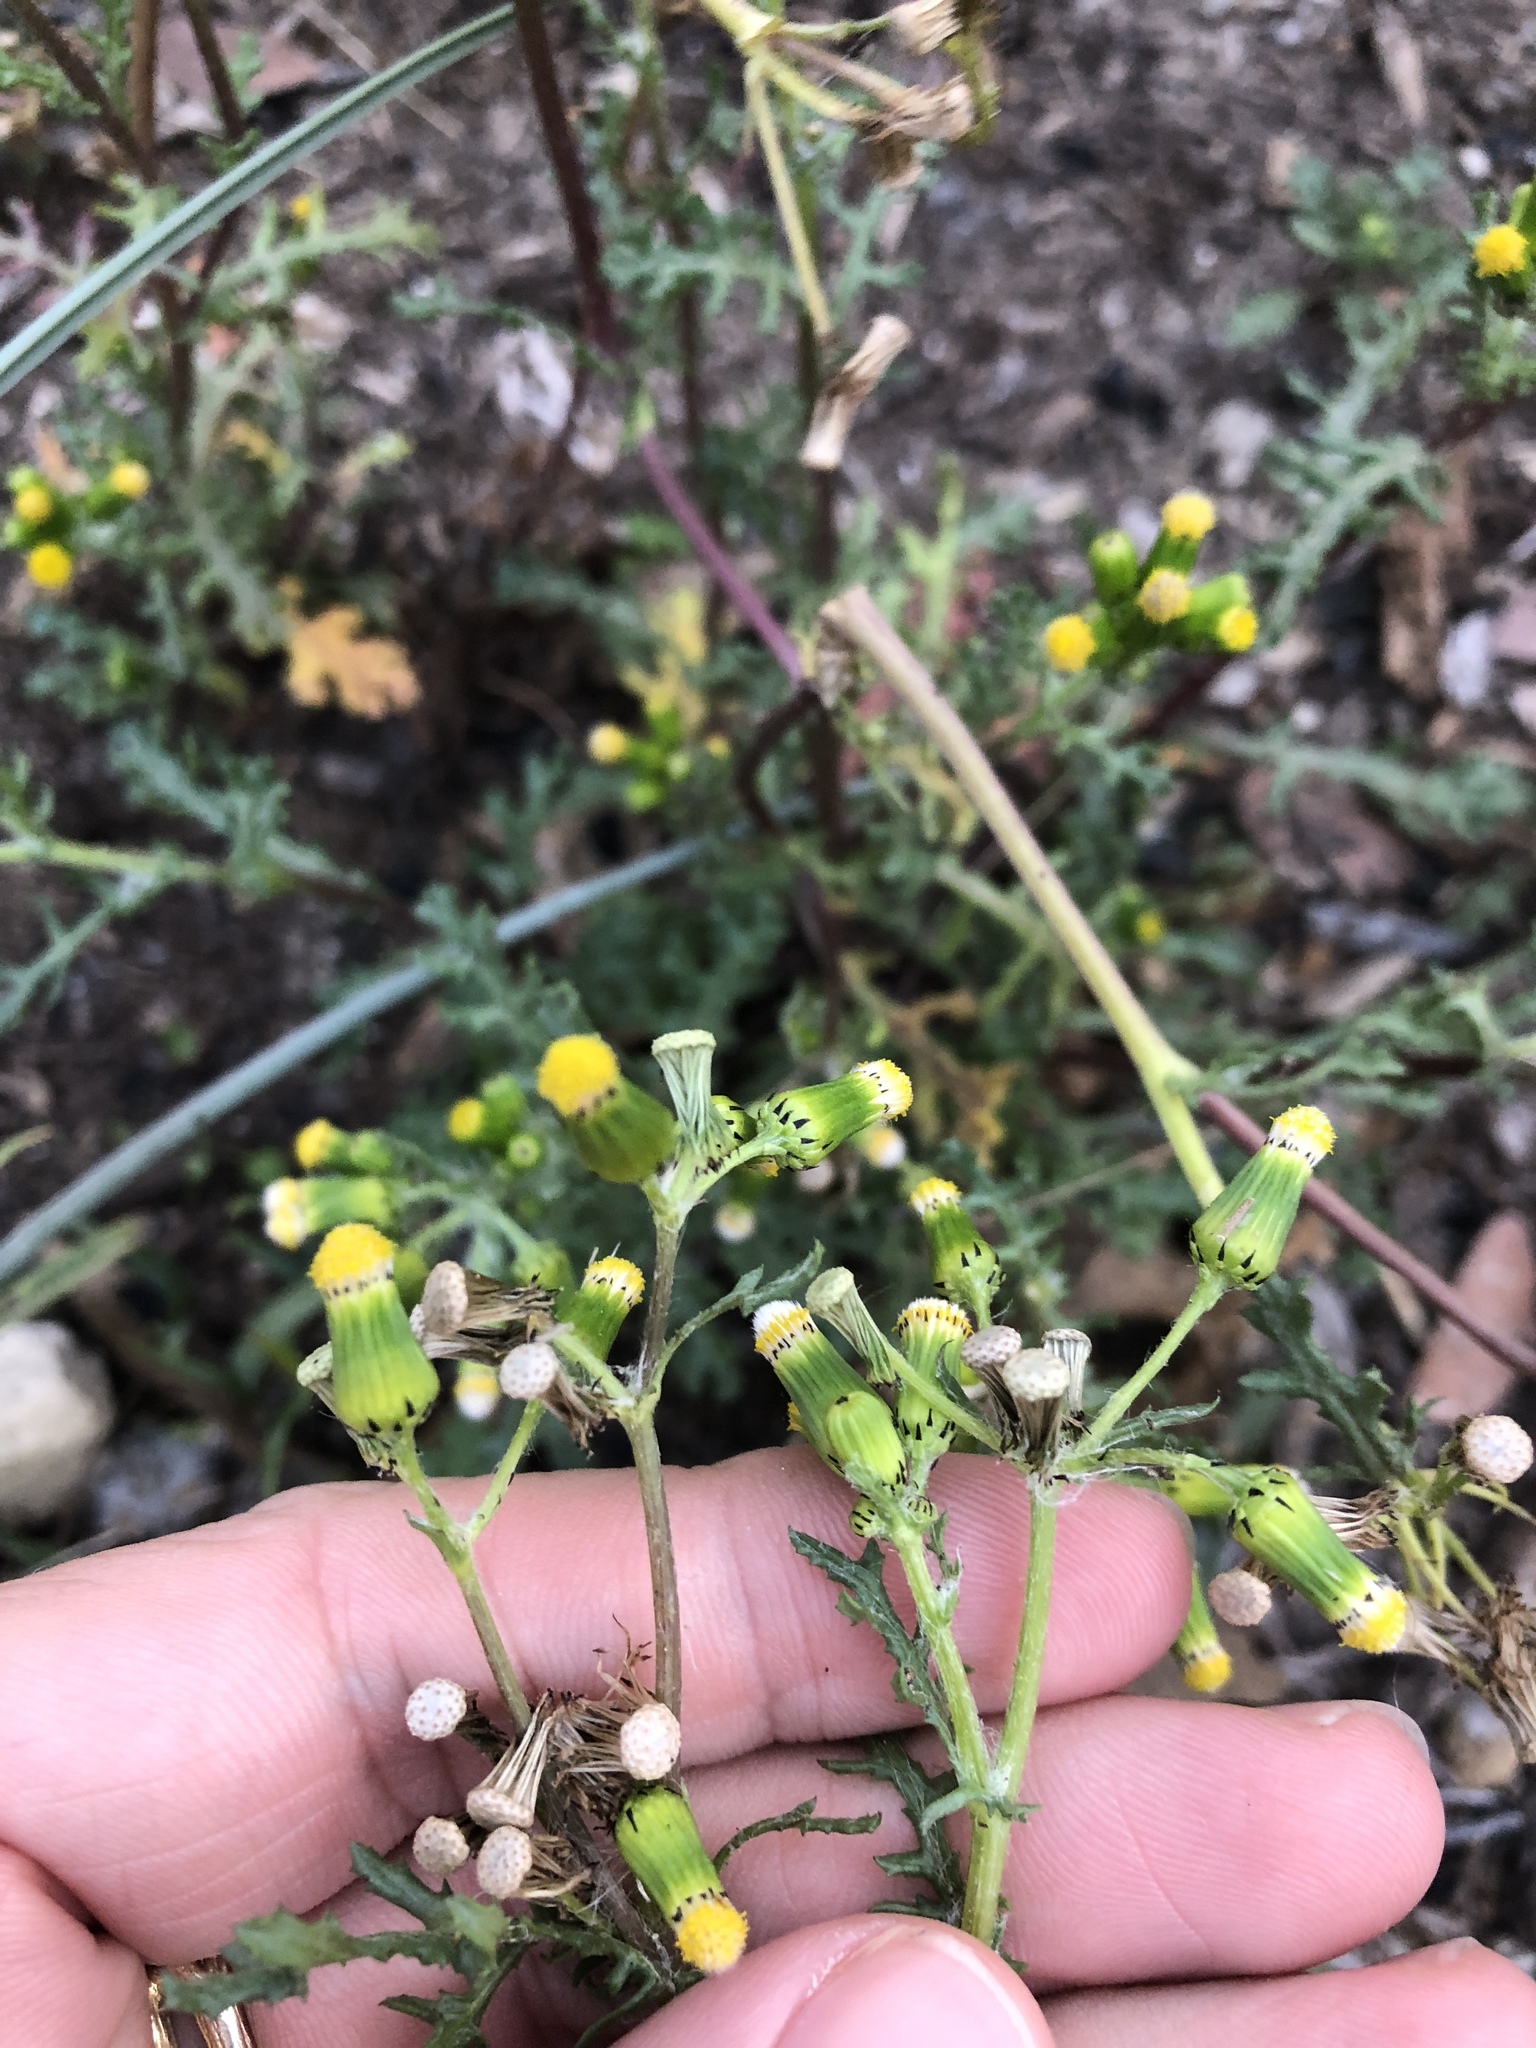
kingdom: Plantae
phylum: Tracheophyta
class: Magnoliopsida
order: Asterales
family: Asteraceae
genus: Senecio
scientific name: Senecio vulgaris
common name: Old-man-in-the-spring
